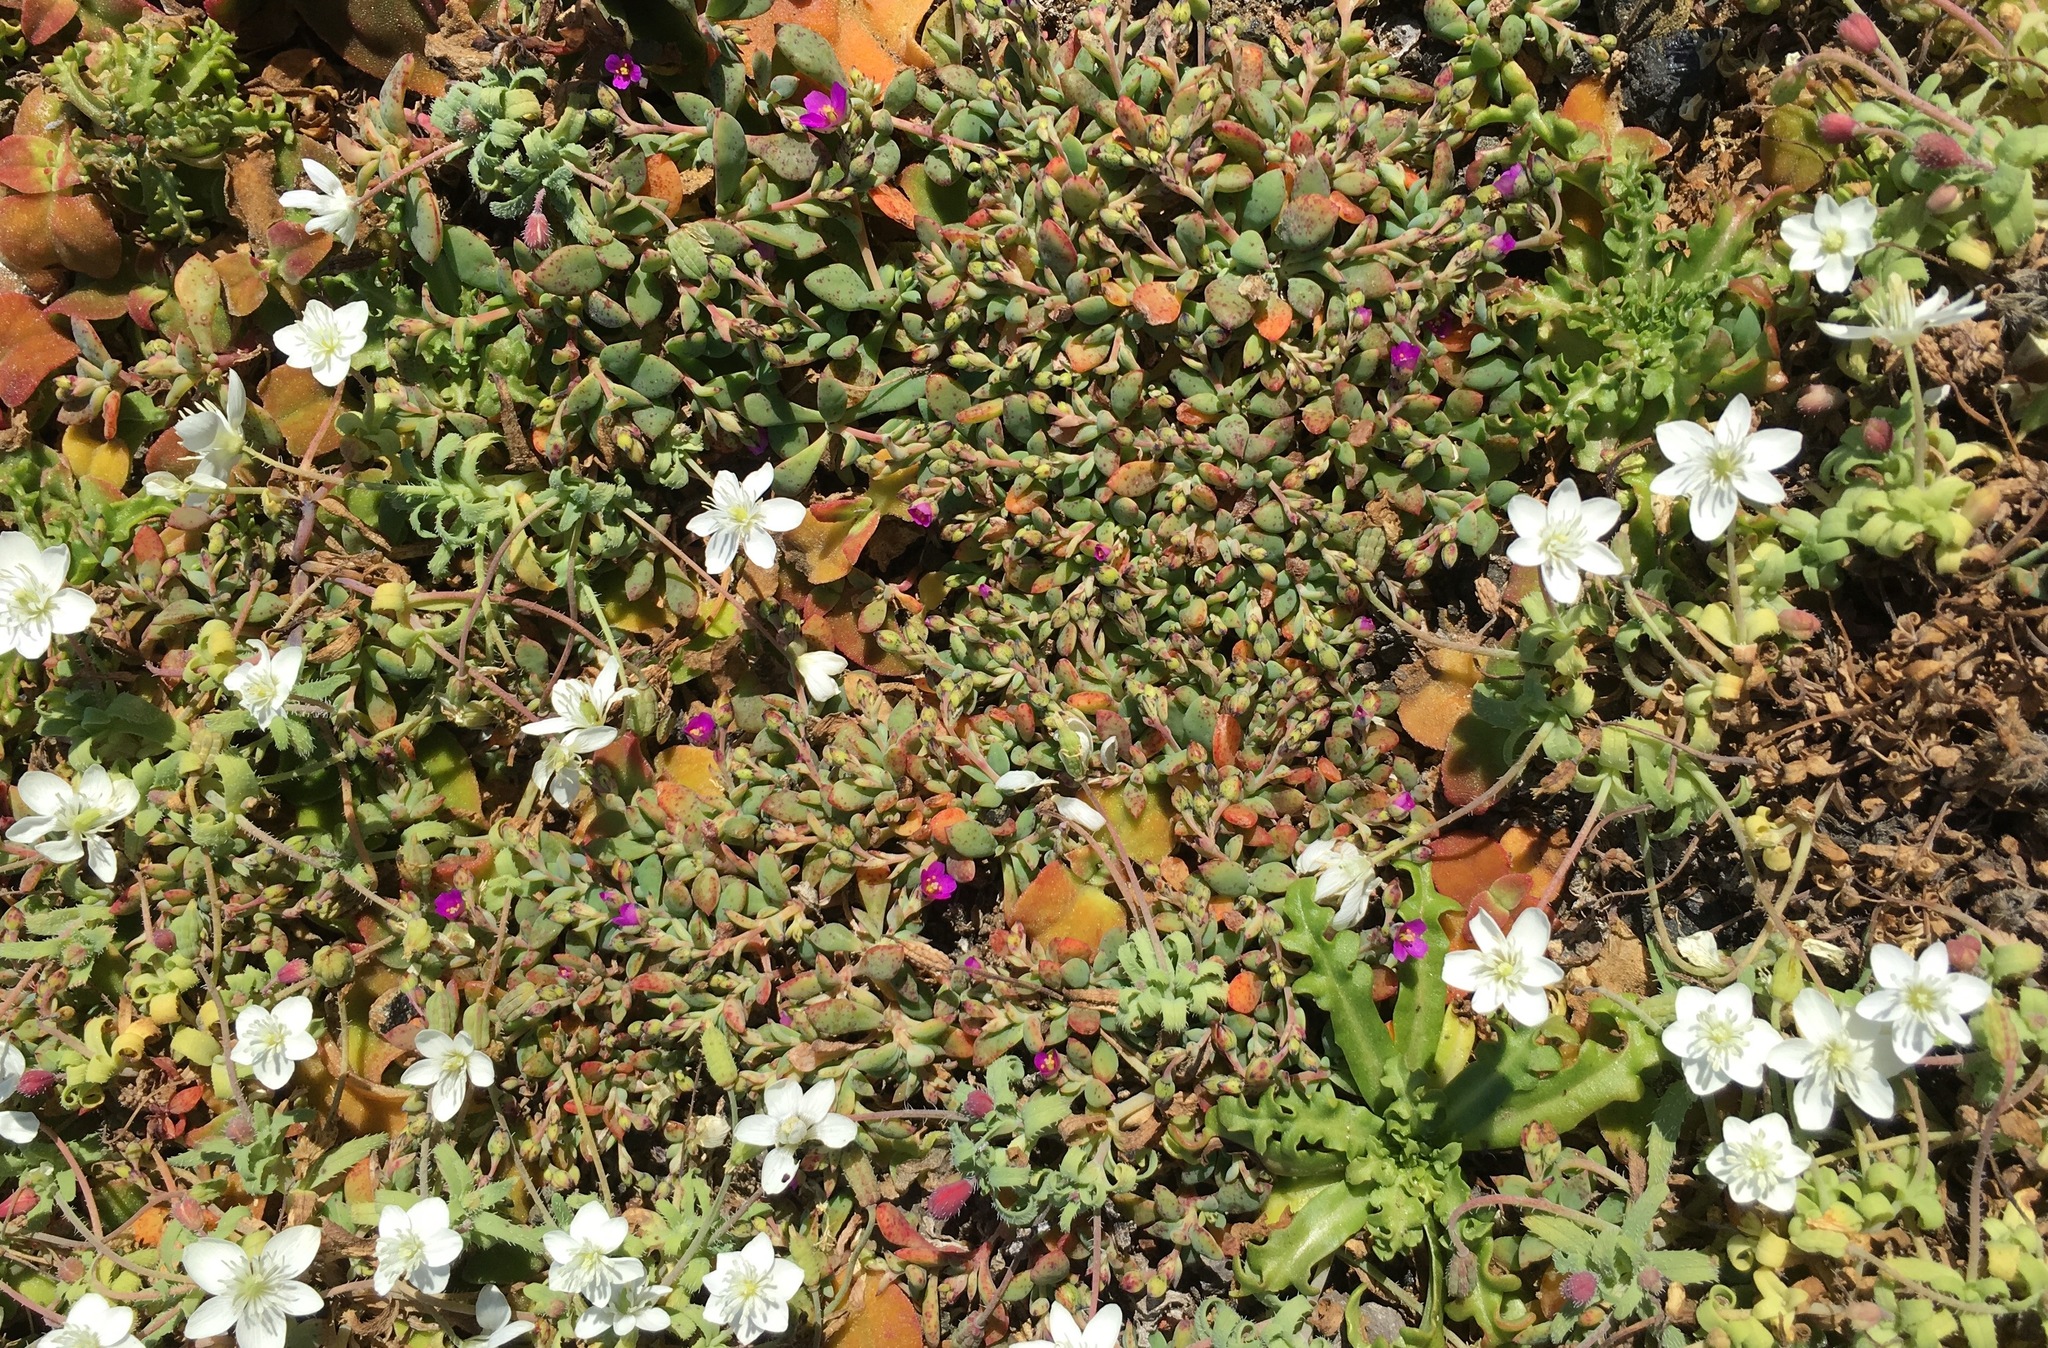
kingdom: Plantae
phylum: Tracheophyta
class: Magnoliopsida
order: Ranunculales
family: Papaveraceae
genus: Platystemon
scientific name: Platystemon californicus
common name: Cream-cups
